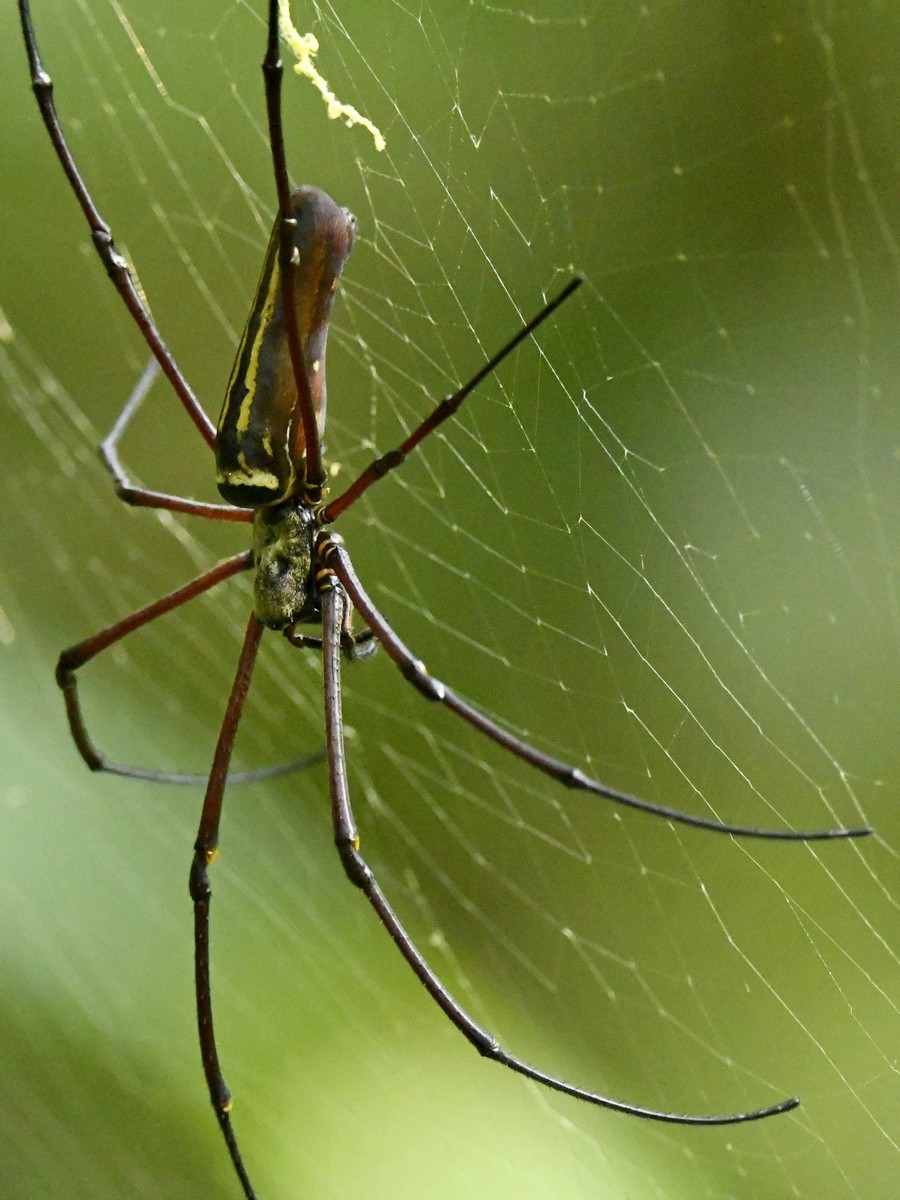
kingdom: Animalia
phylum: Arthropoda
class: Arachnida
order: Araneae
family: Araneidae
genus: Nephila
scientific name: Nephila kuhli
